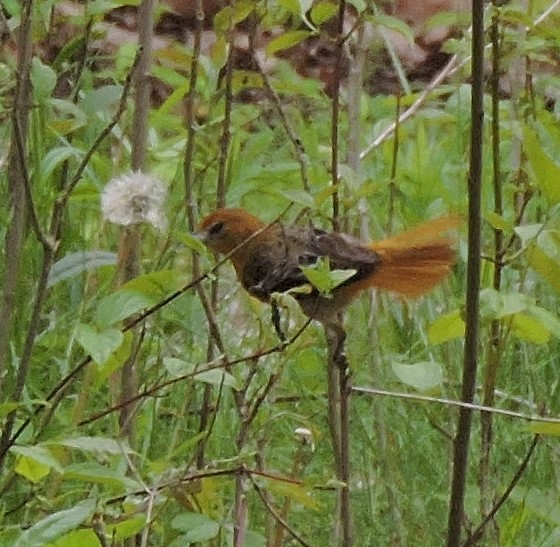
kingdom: Animalia
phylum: Chordata
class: Aves
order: Passeriformes
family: Icteridae
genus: Icterus
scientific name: Icterus galbula
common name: Baltimore oriole
